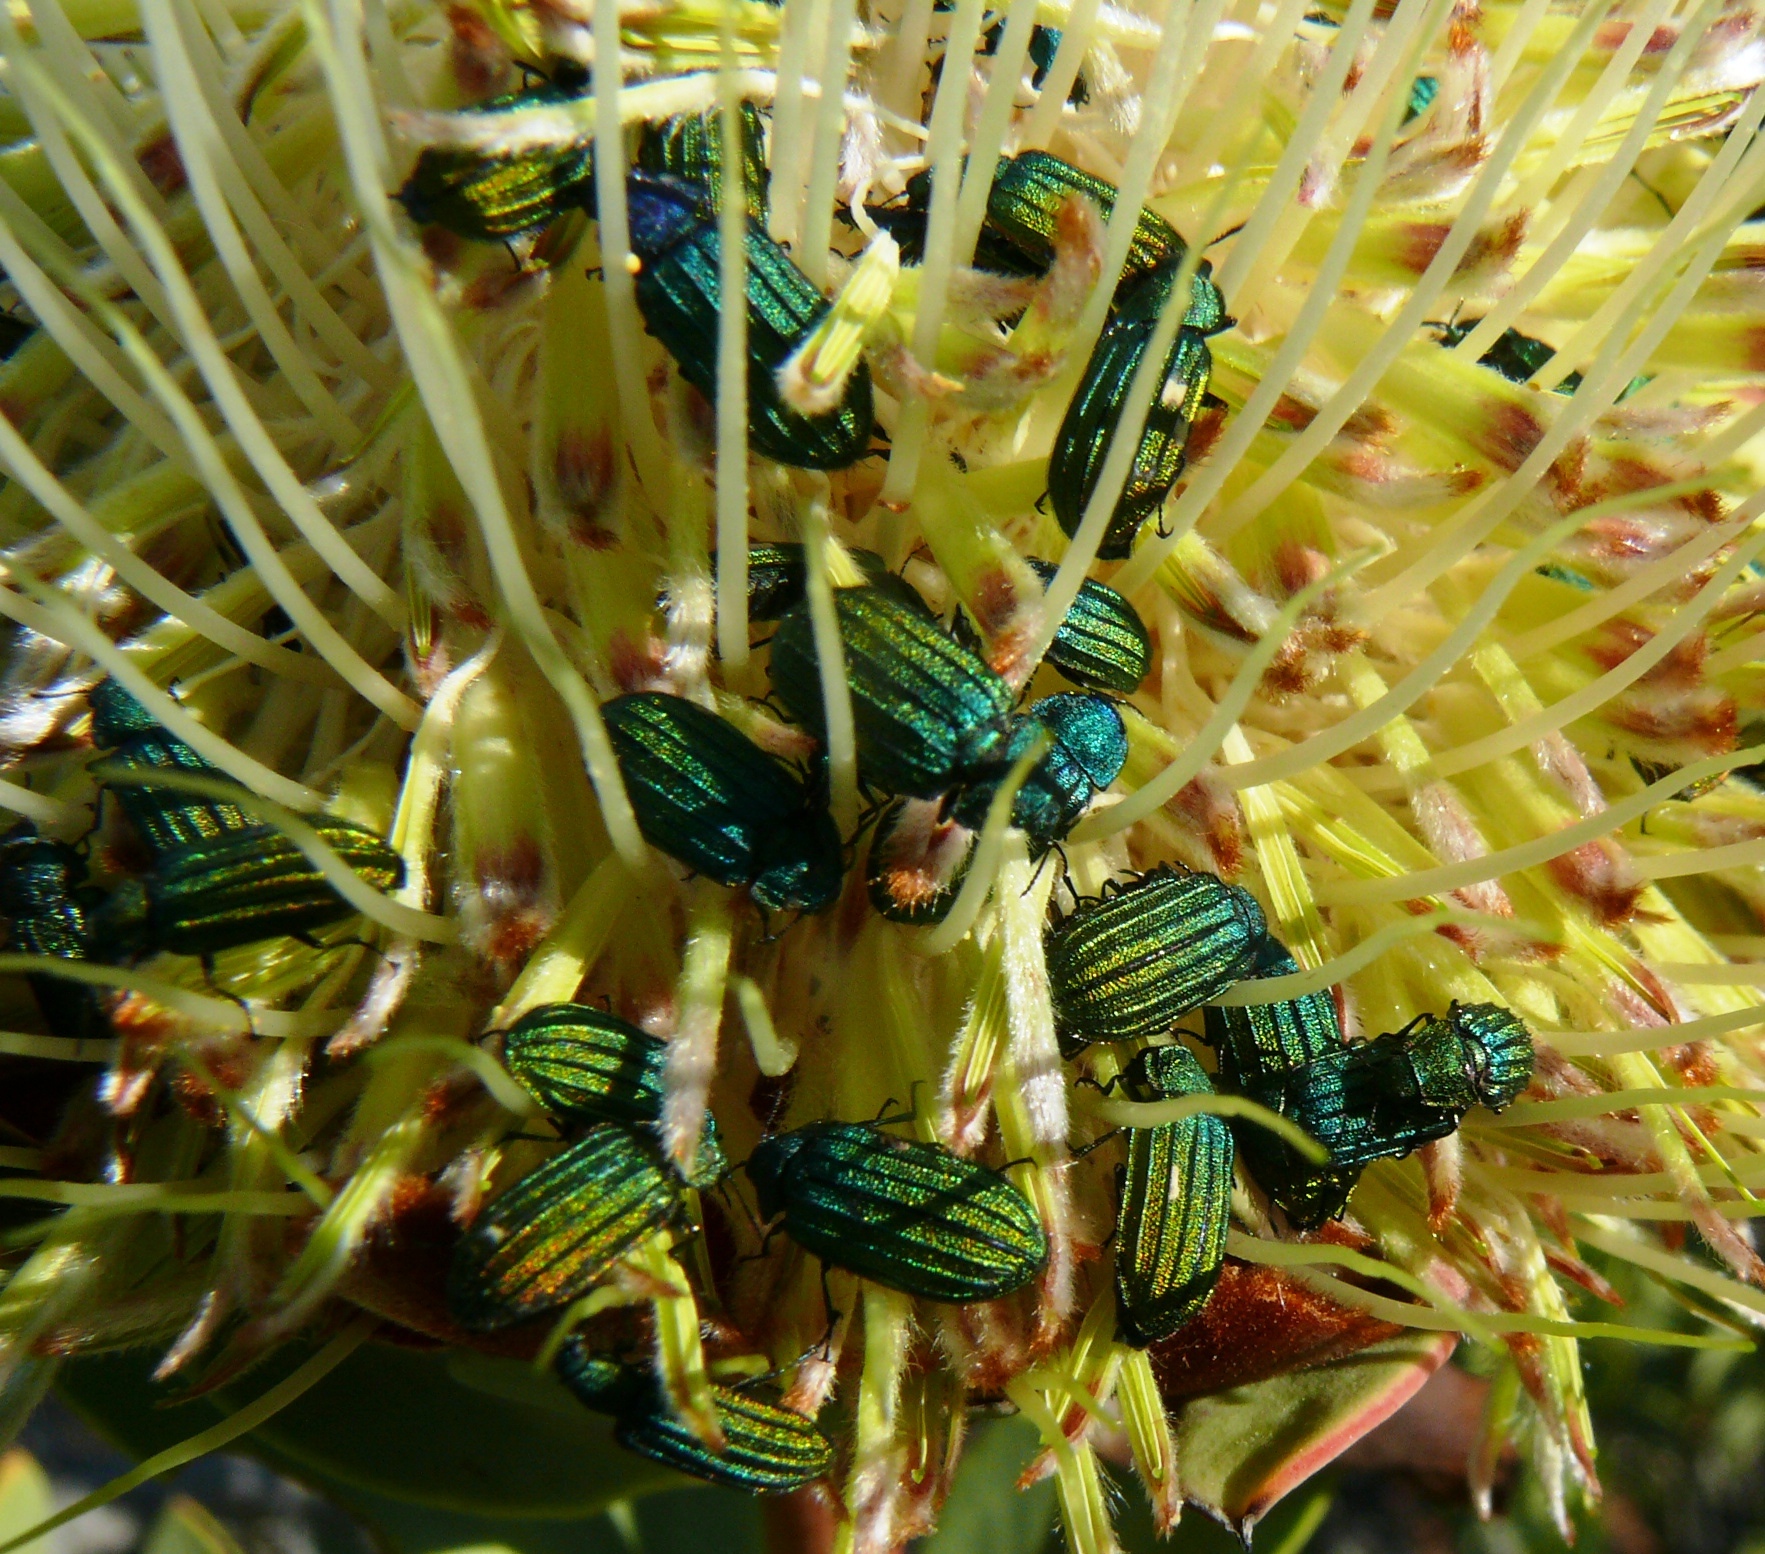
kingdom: Plantae
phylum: Tracheophyta
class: Magnoliopsida
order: Proteales
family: Proteaceae
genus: Protea
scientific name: Protea glabra
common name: Chestnut sugarbush
